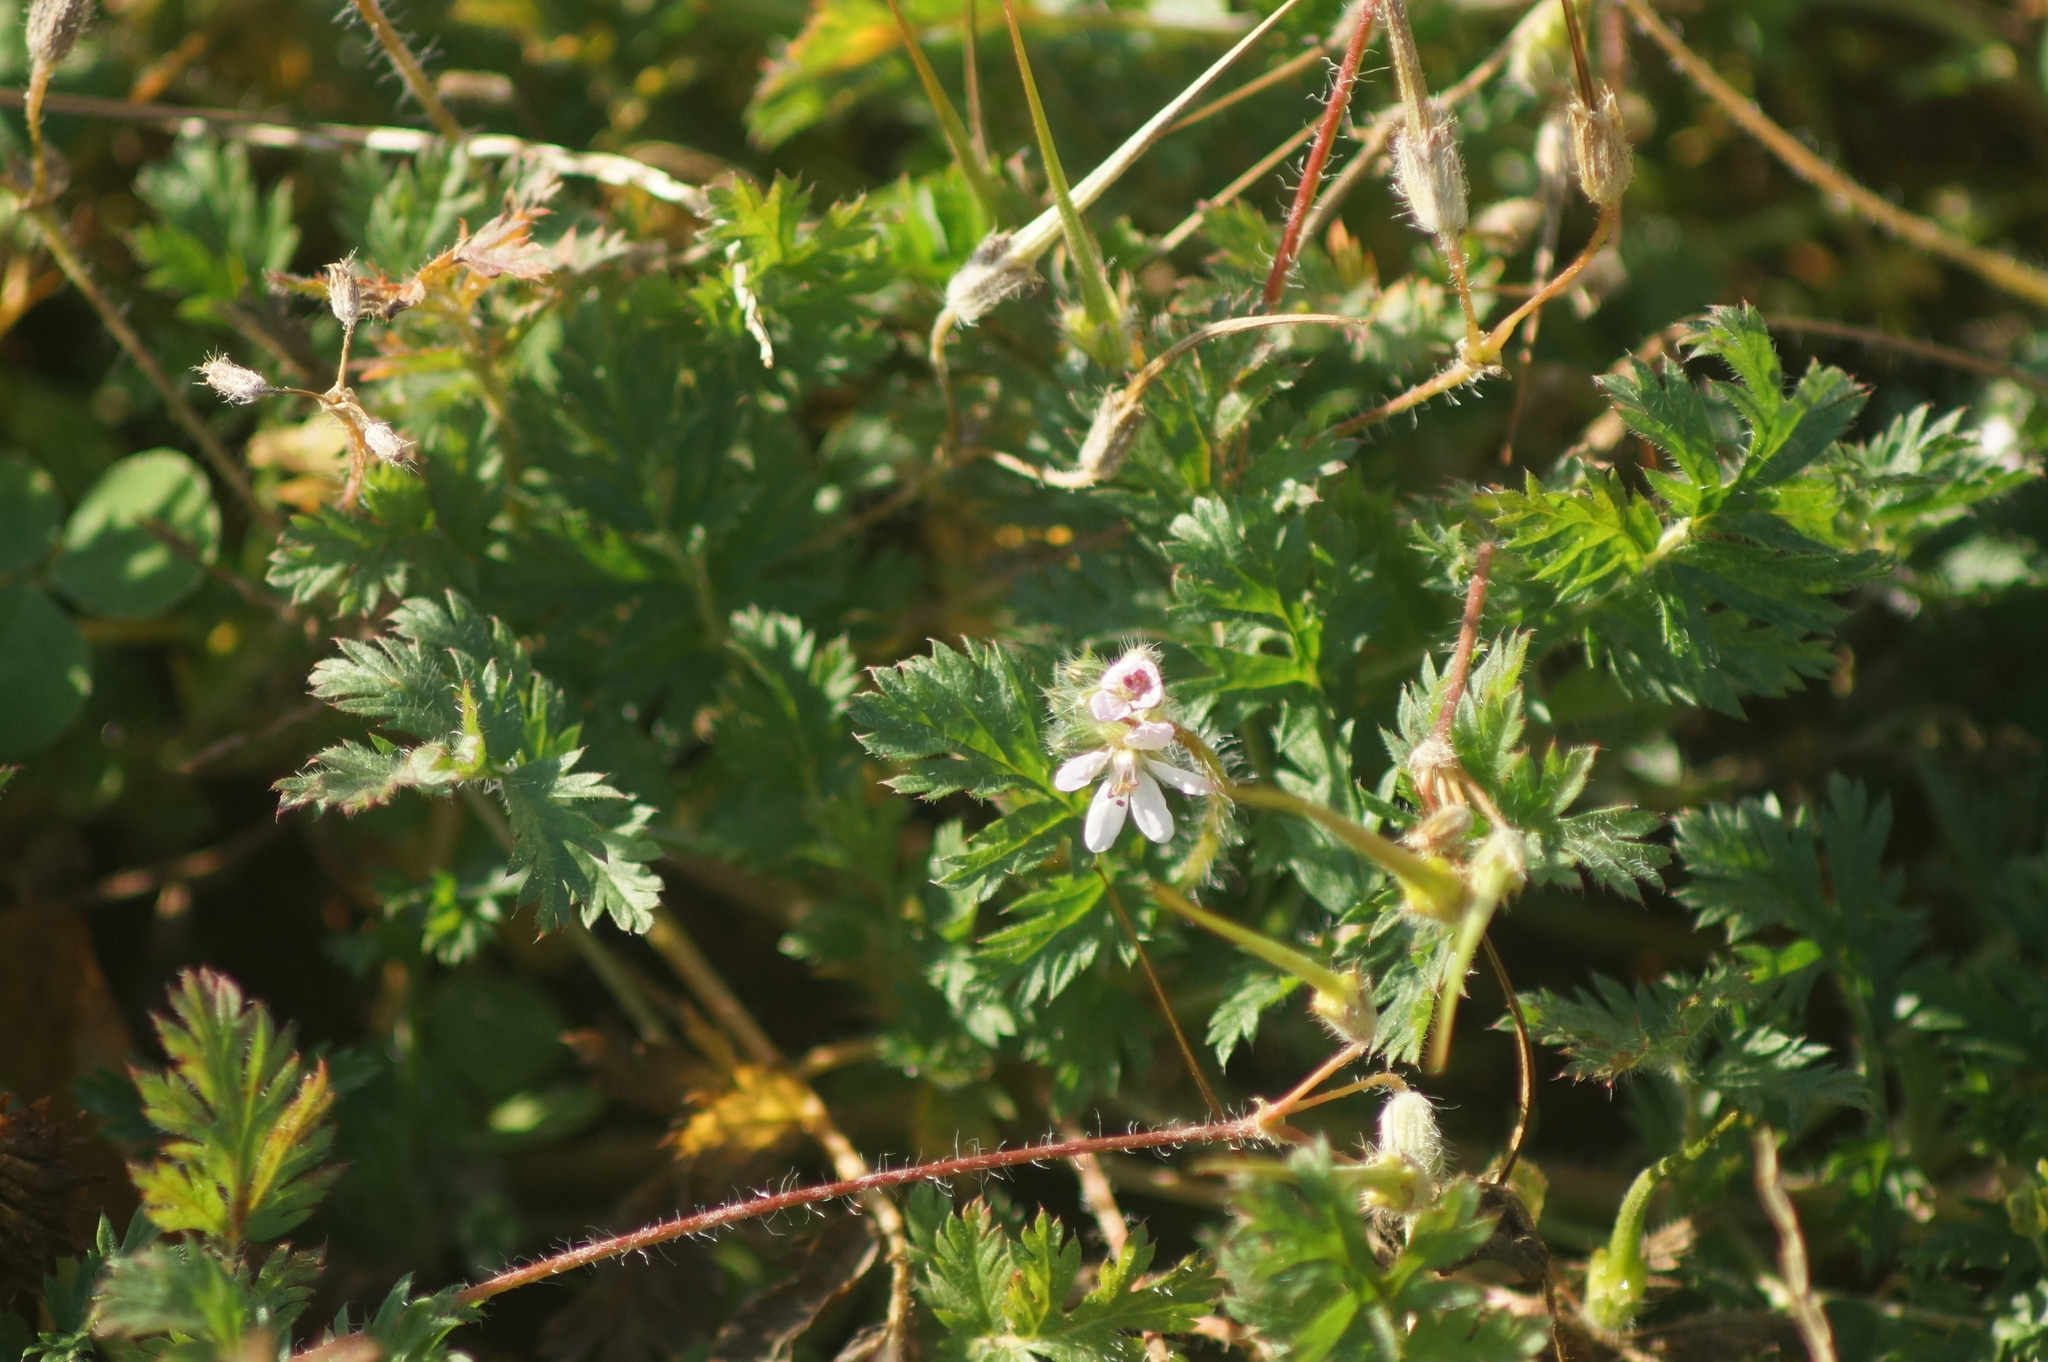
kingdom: Plantae
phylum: Tracheophyta
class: Magnoliopsida
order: Geraniales
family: Geraniaceae
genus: Erodium
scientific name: Erodium cicutarium
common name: Common stork's-bill
